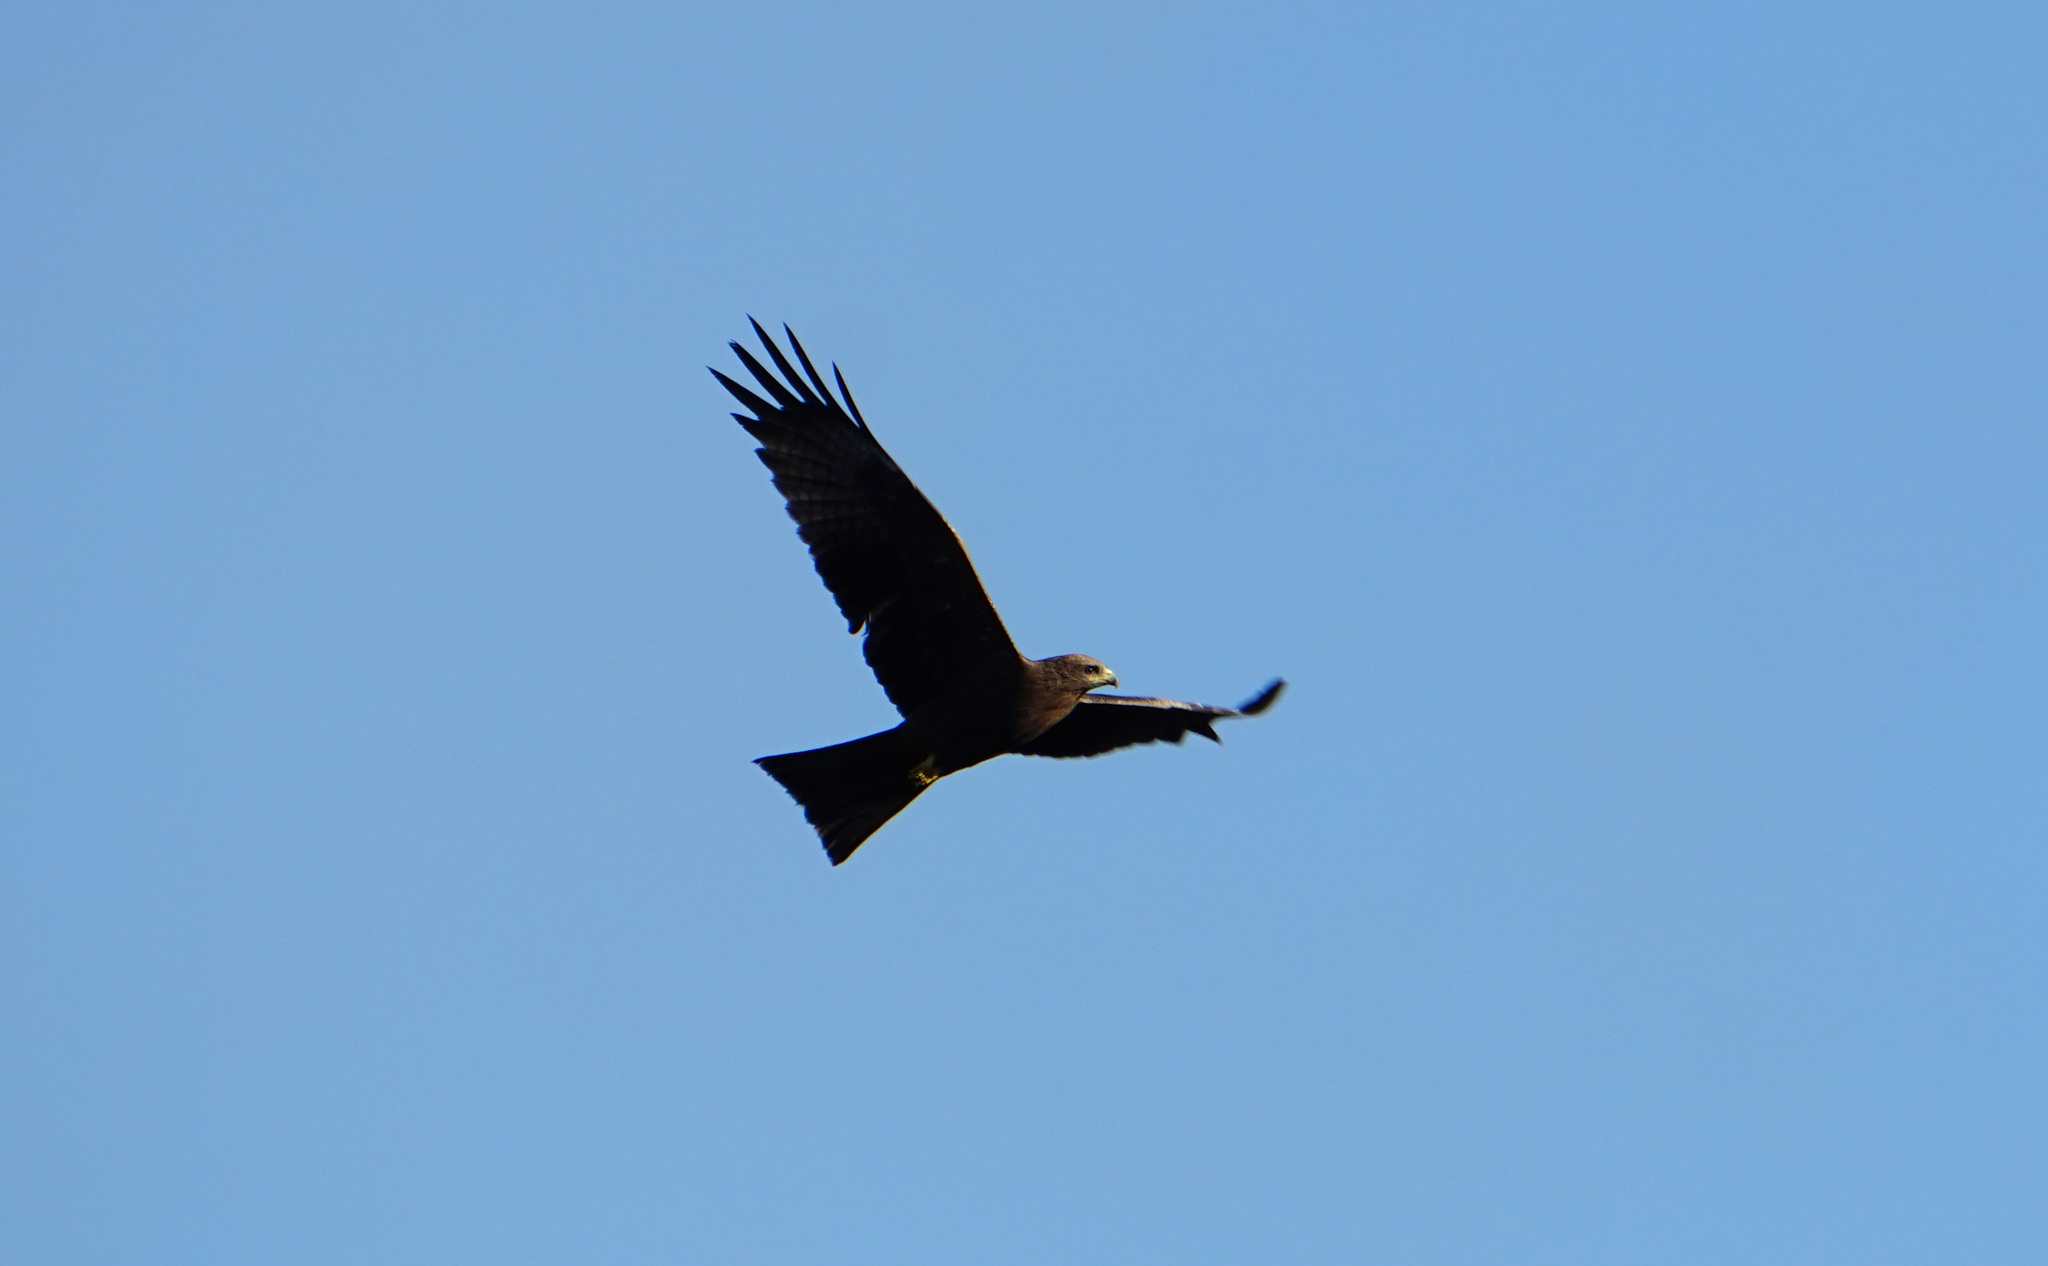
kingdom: Animalia
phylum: Chordata
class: Aves
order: Accipitriformes
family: Accipitridae
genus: Milvus
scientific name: Milvus migrans
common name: Black kite
